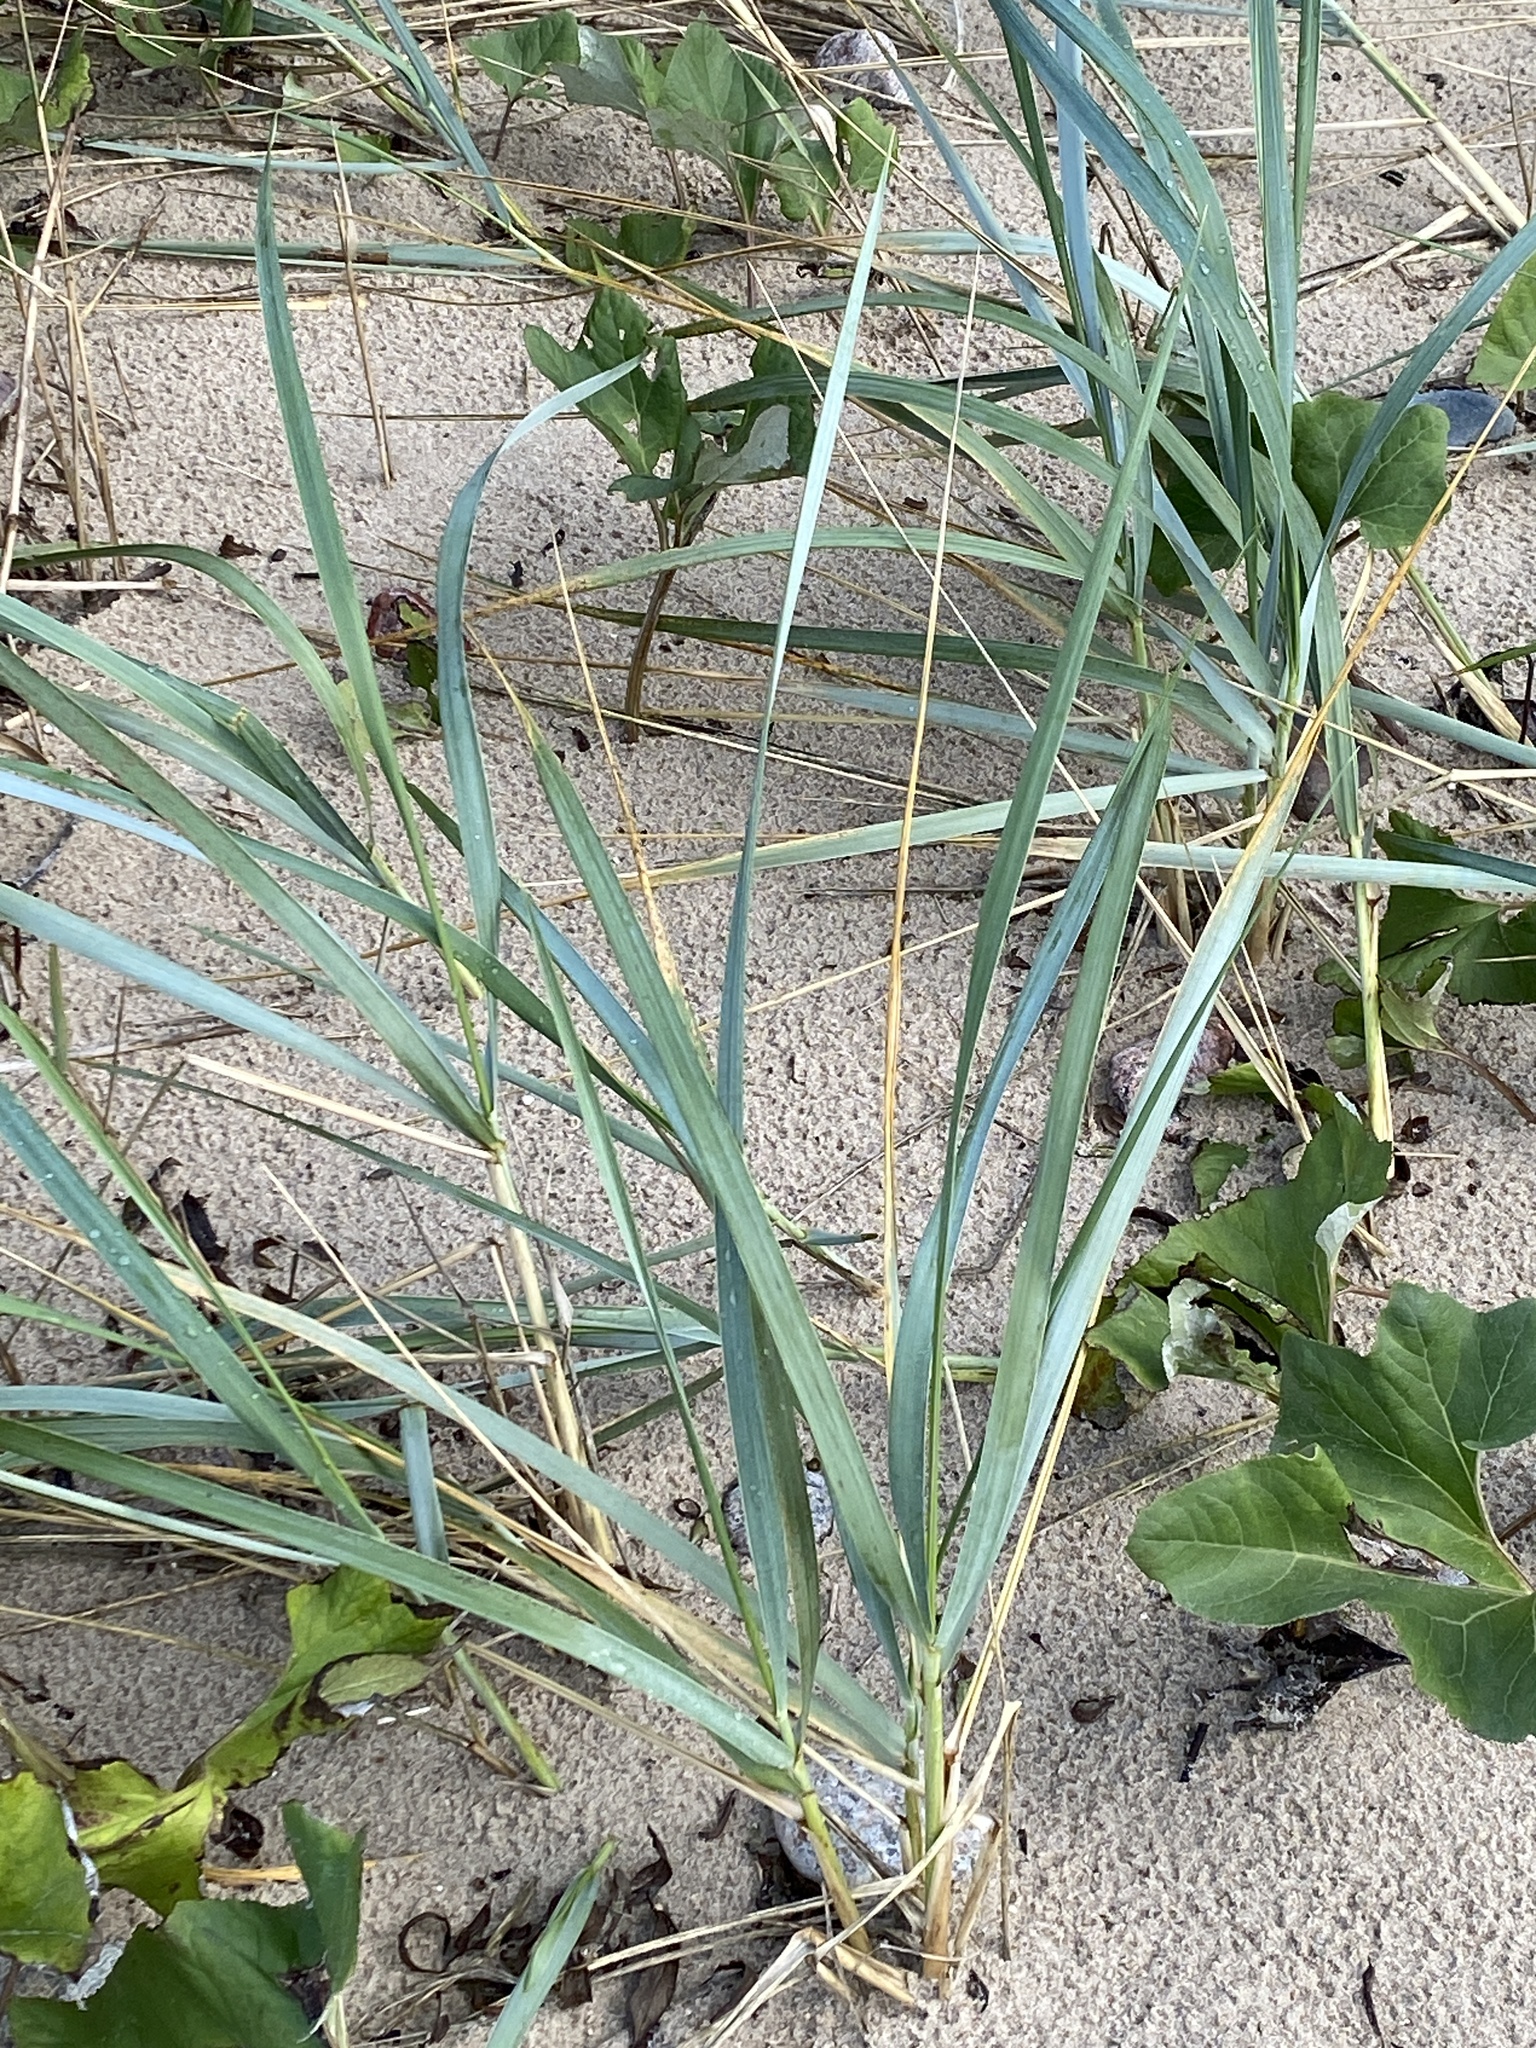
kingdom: Plantae
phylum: Tracheophyta
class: Liliopsida
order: Poales
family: Poaceae
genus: Leymus
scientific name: Leymus arenarius
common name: Lyme-grass
